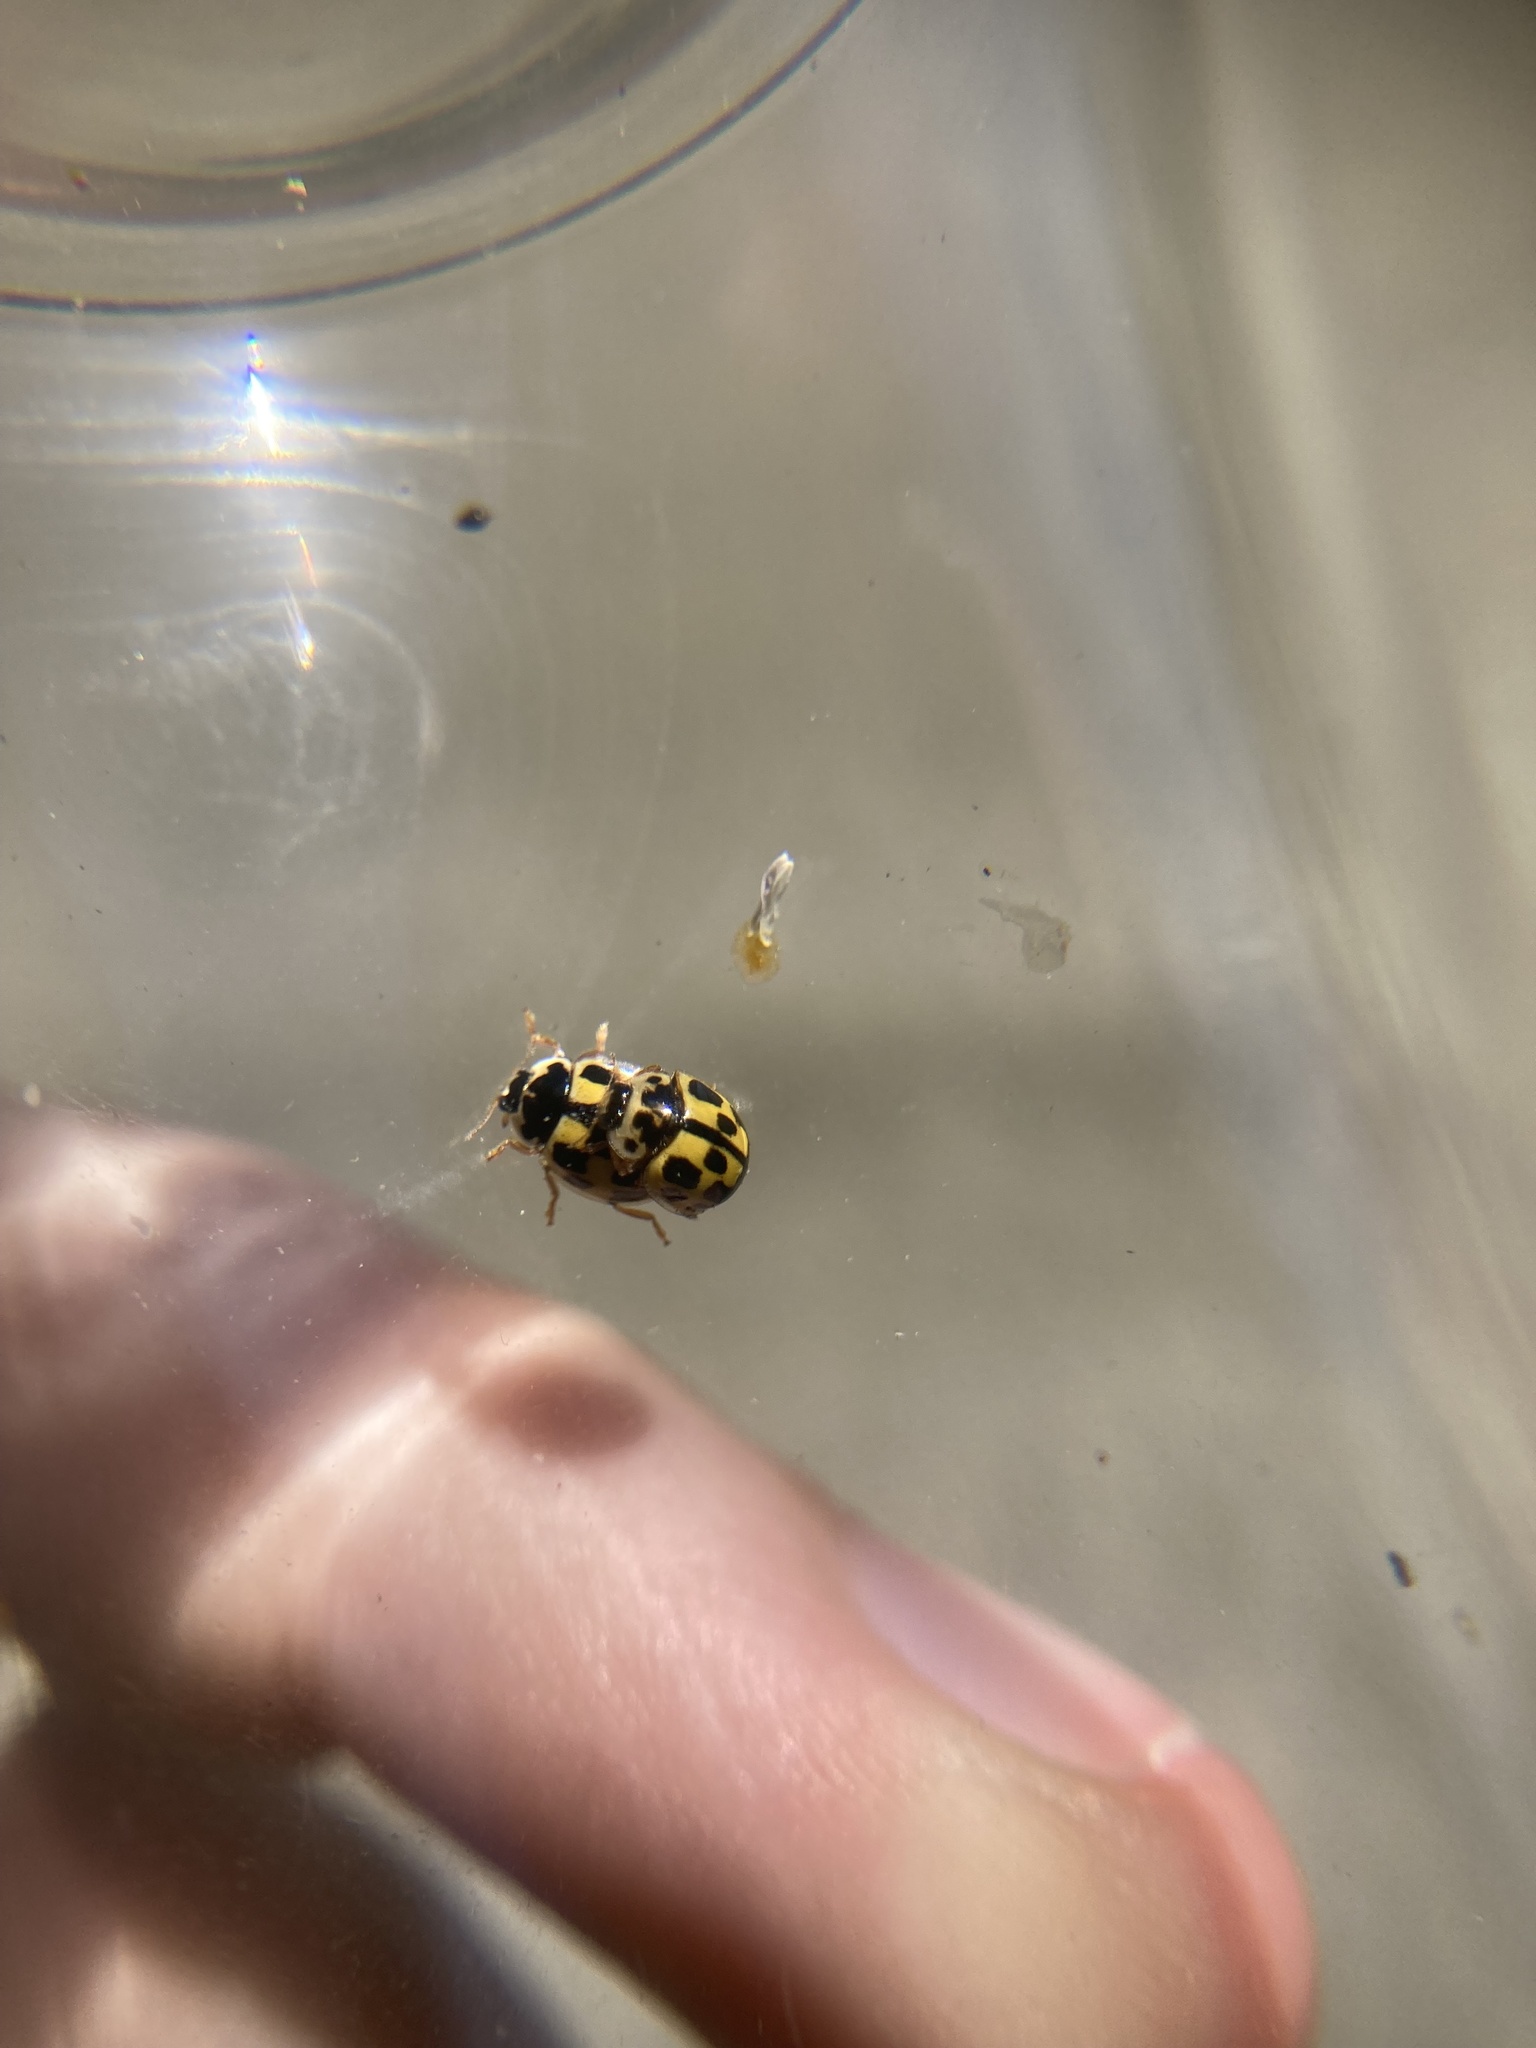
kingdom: Animalia
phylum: Arthropoda
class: Insecta
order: Coleoptera
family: Coccinellidae
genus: Propylaea
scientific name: Propylaea quatuordecimpunctata
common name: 14-spotted ladybird beetle
